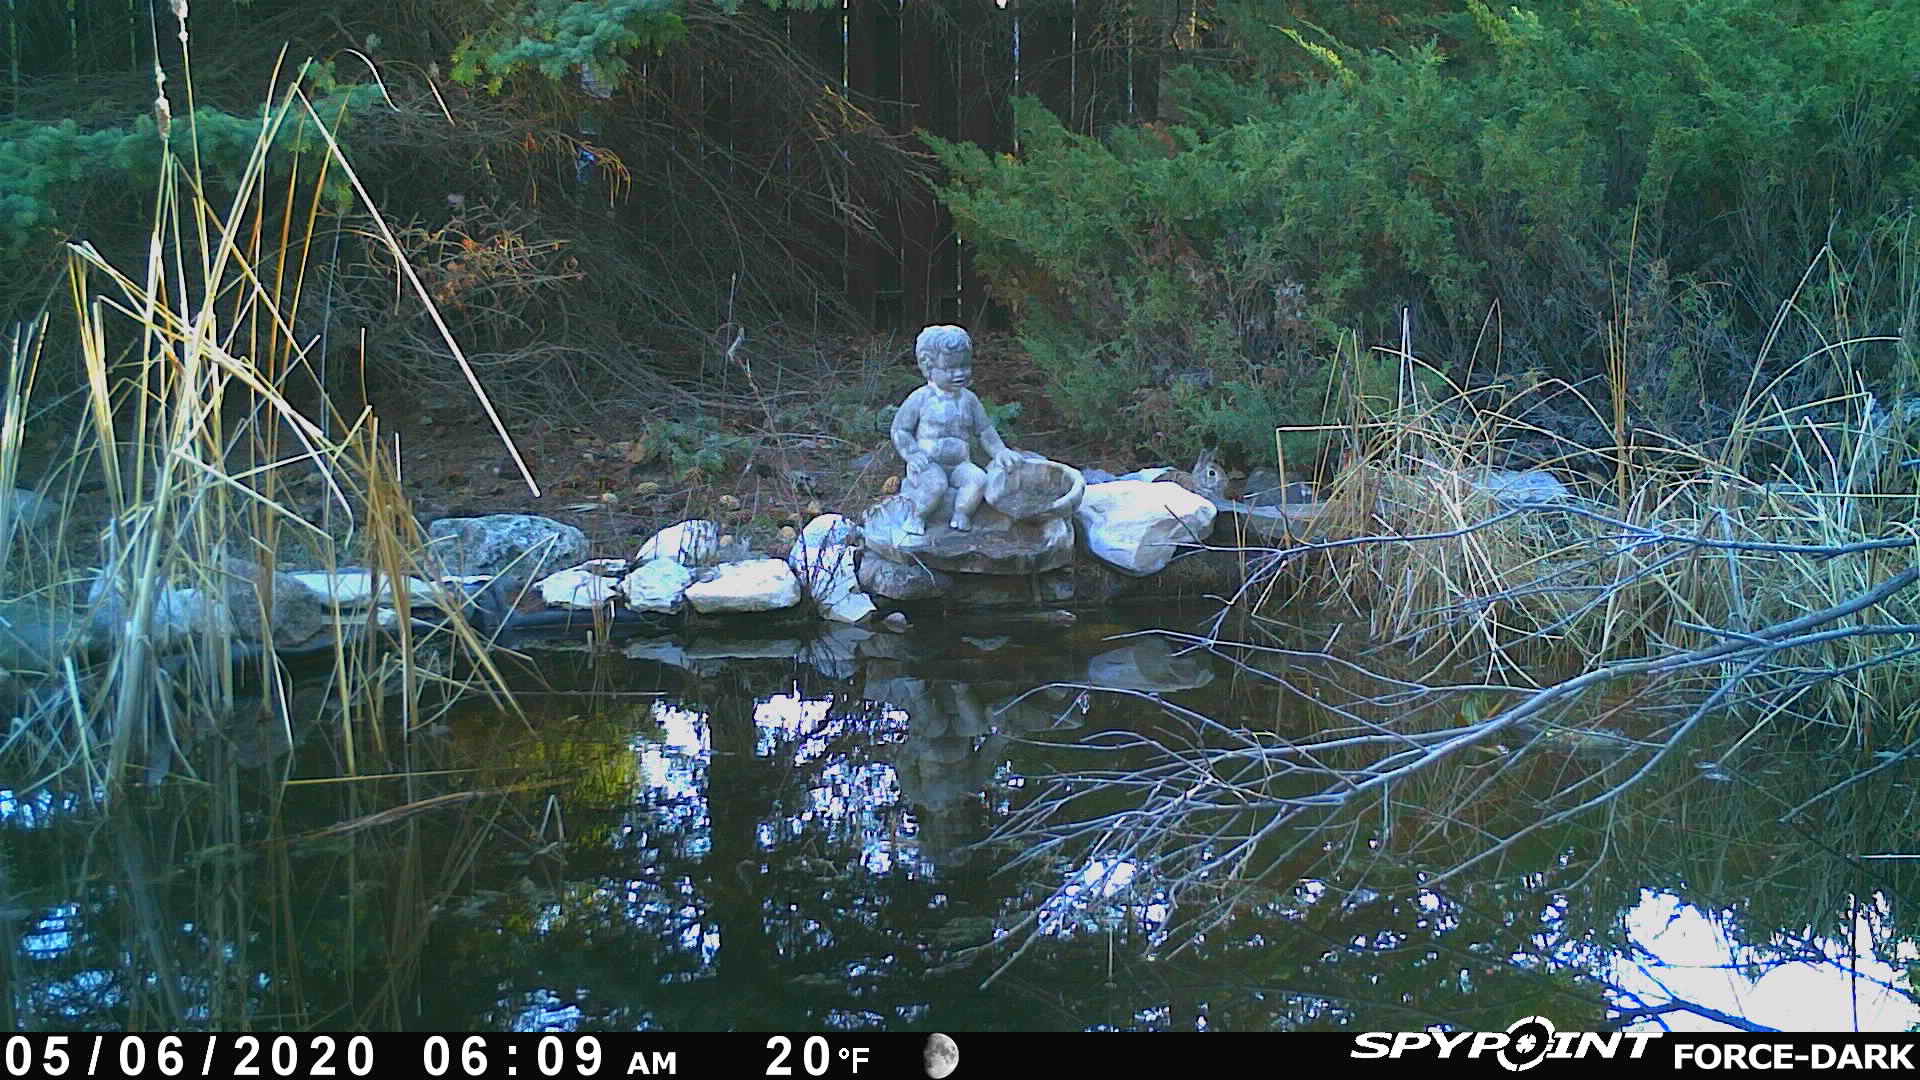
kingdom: Animalia
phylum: Chordata
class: Mammalia
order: Lagomorpha
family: Leporidae
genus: Sylvilagus
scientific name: Sylvilagus floridanus
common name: Eastern cottontail
